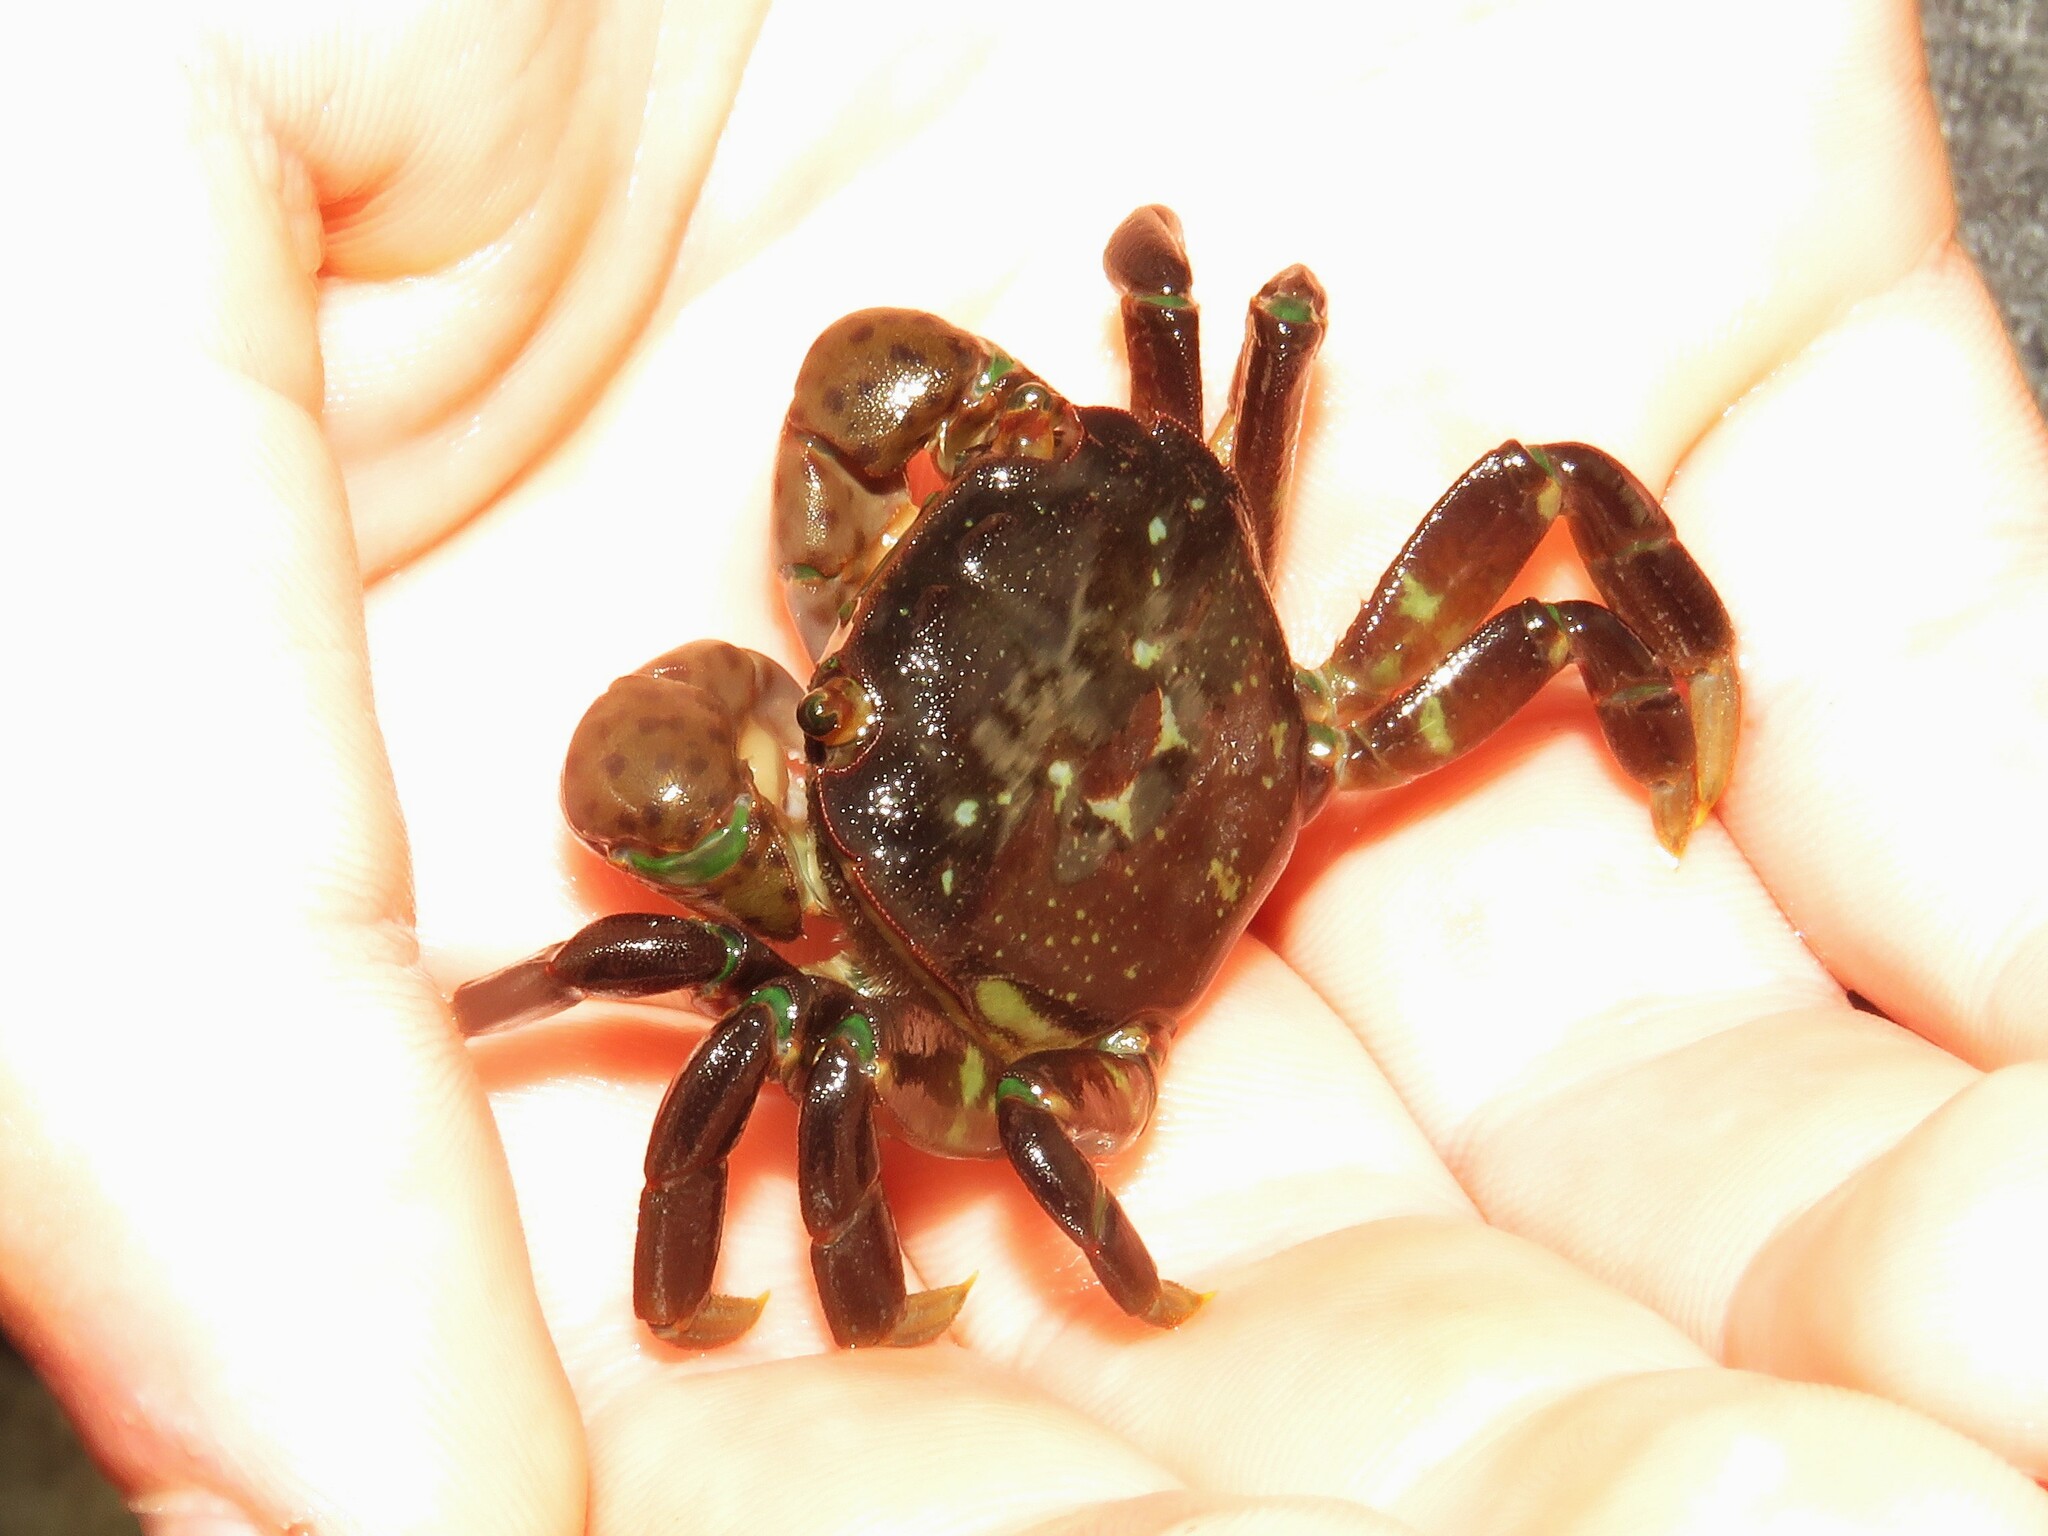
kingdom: Animalia
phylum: Arthropoda
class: Malacostraca
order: Decapoda
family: Varunidae
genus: Hemigrapsus
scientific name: Hemigrapsus nudus
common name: Purple shore crab
